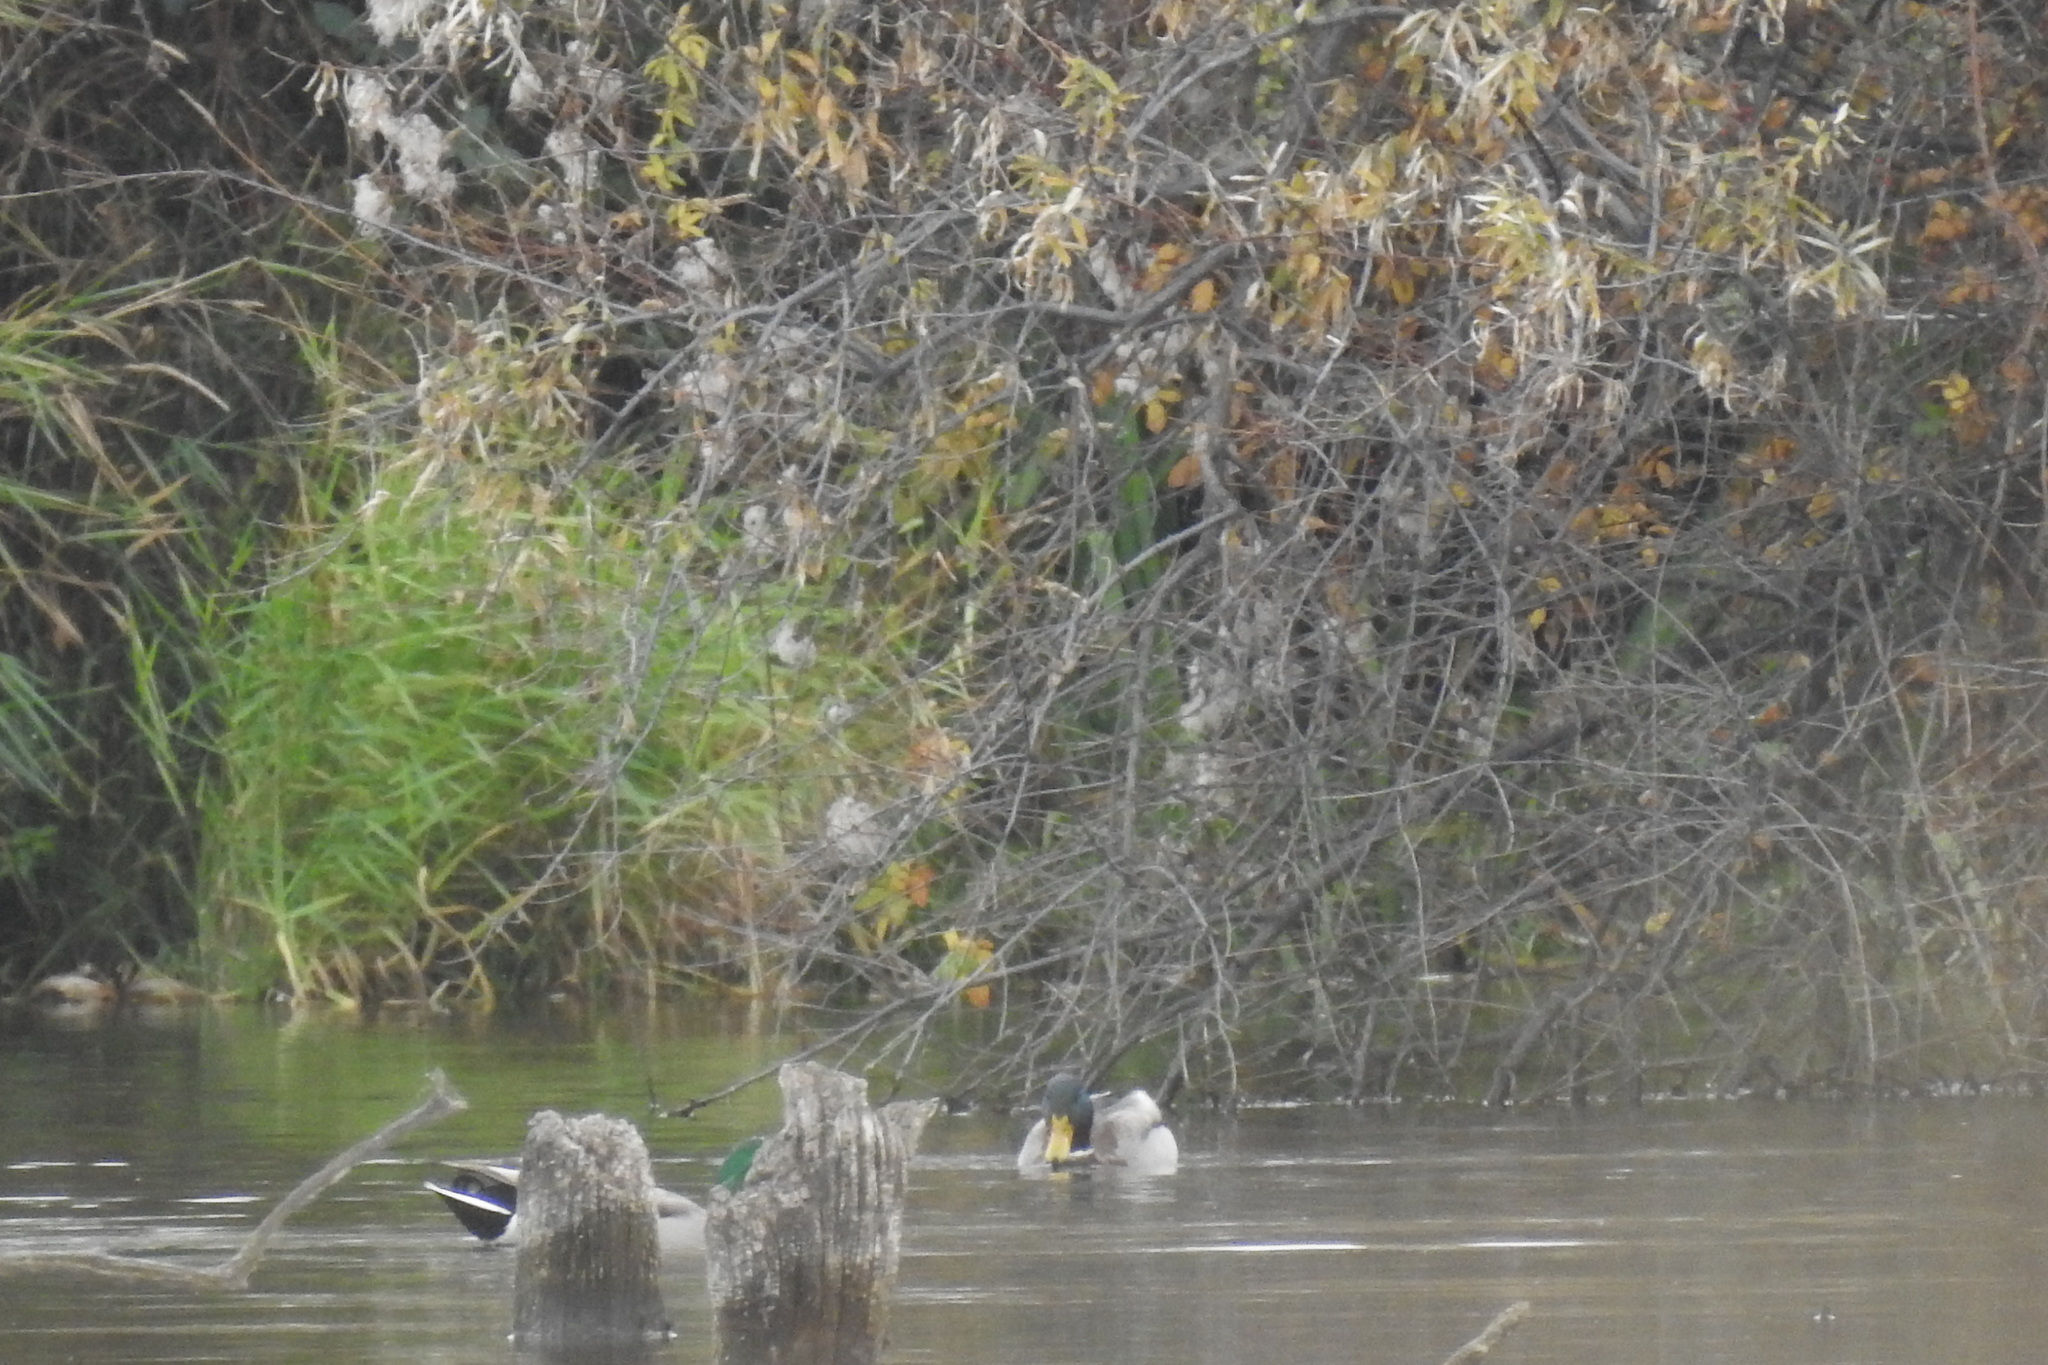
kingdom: Animalia
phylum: Chordata
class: Aves
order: Anseriformes
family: Anatidae
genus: Anas
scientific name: Anas platyrhynchos
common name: Mallard
